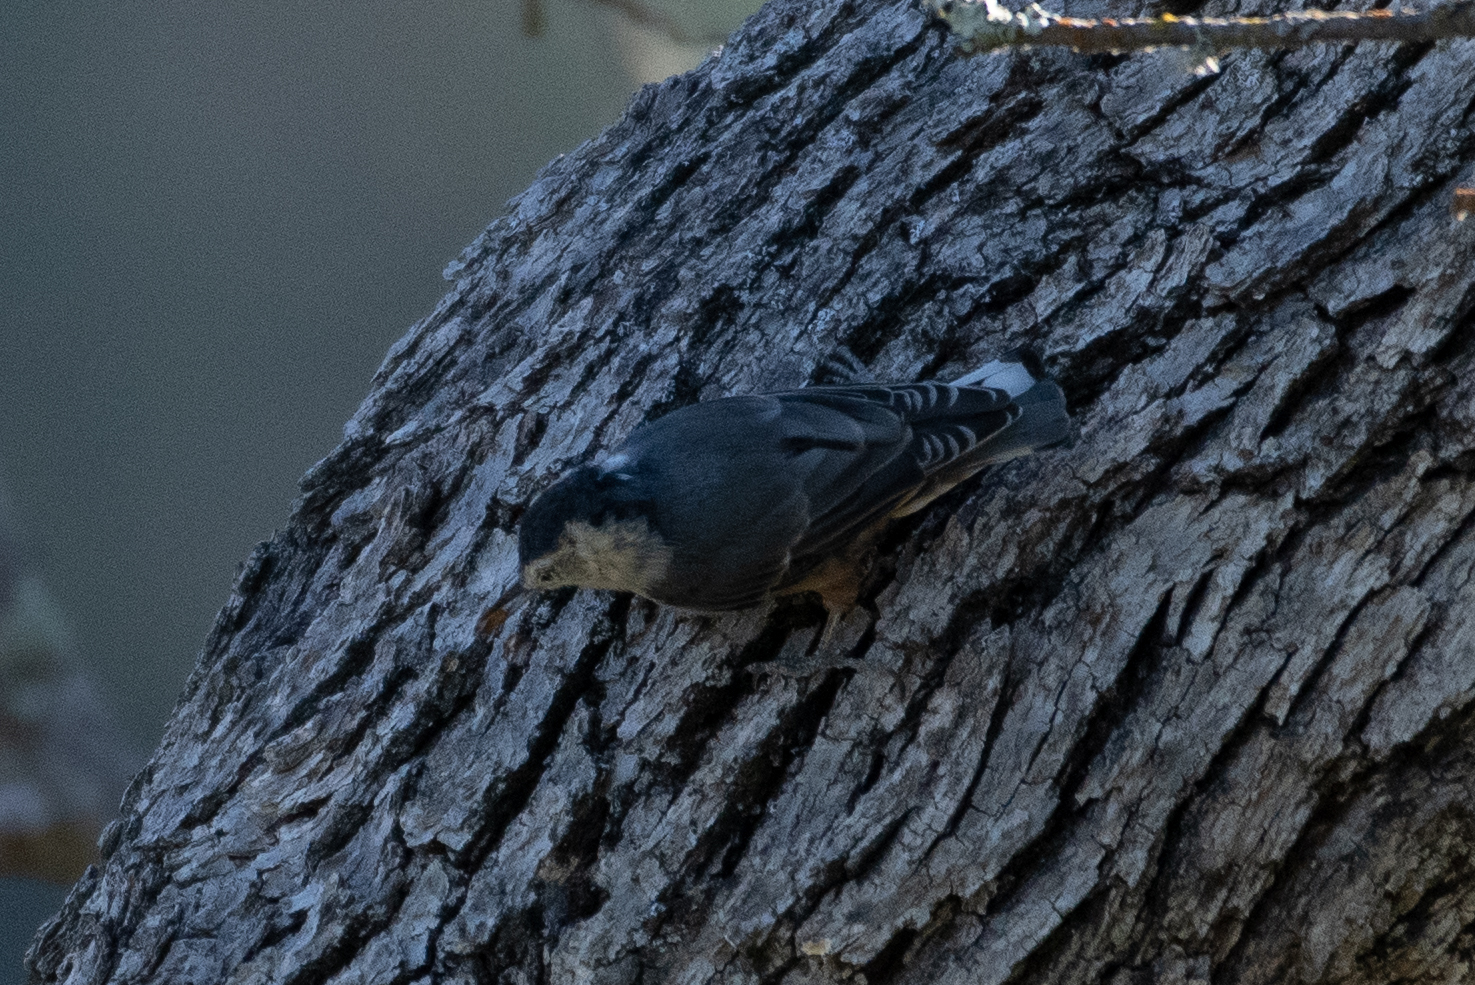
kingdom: Animalia
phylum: Chordata
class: Aves
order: Passeriformes
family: Sittidae
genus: Sitta
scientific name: Sitta carolinensis
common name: White-breasted nuthatch
